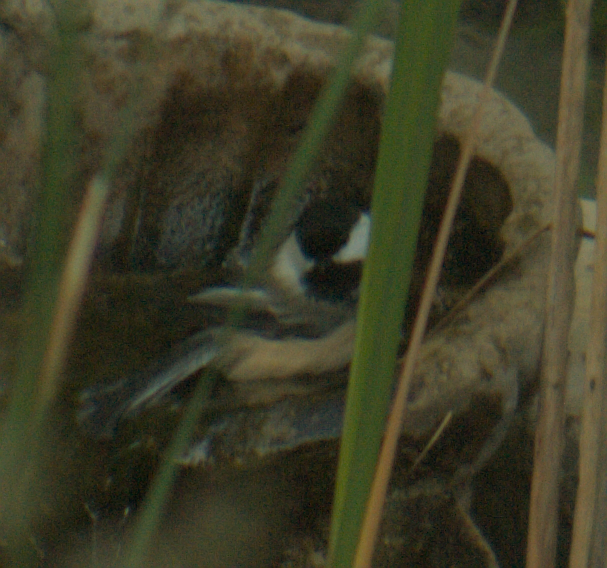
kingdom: Animalia
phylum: Chordata
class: Aves
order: Passeriformes
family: Paridae
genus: Poecile
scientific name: Poecile atricapillus
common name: Black-capped chickadee
